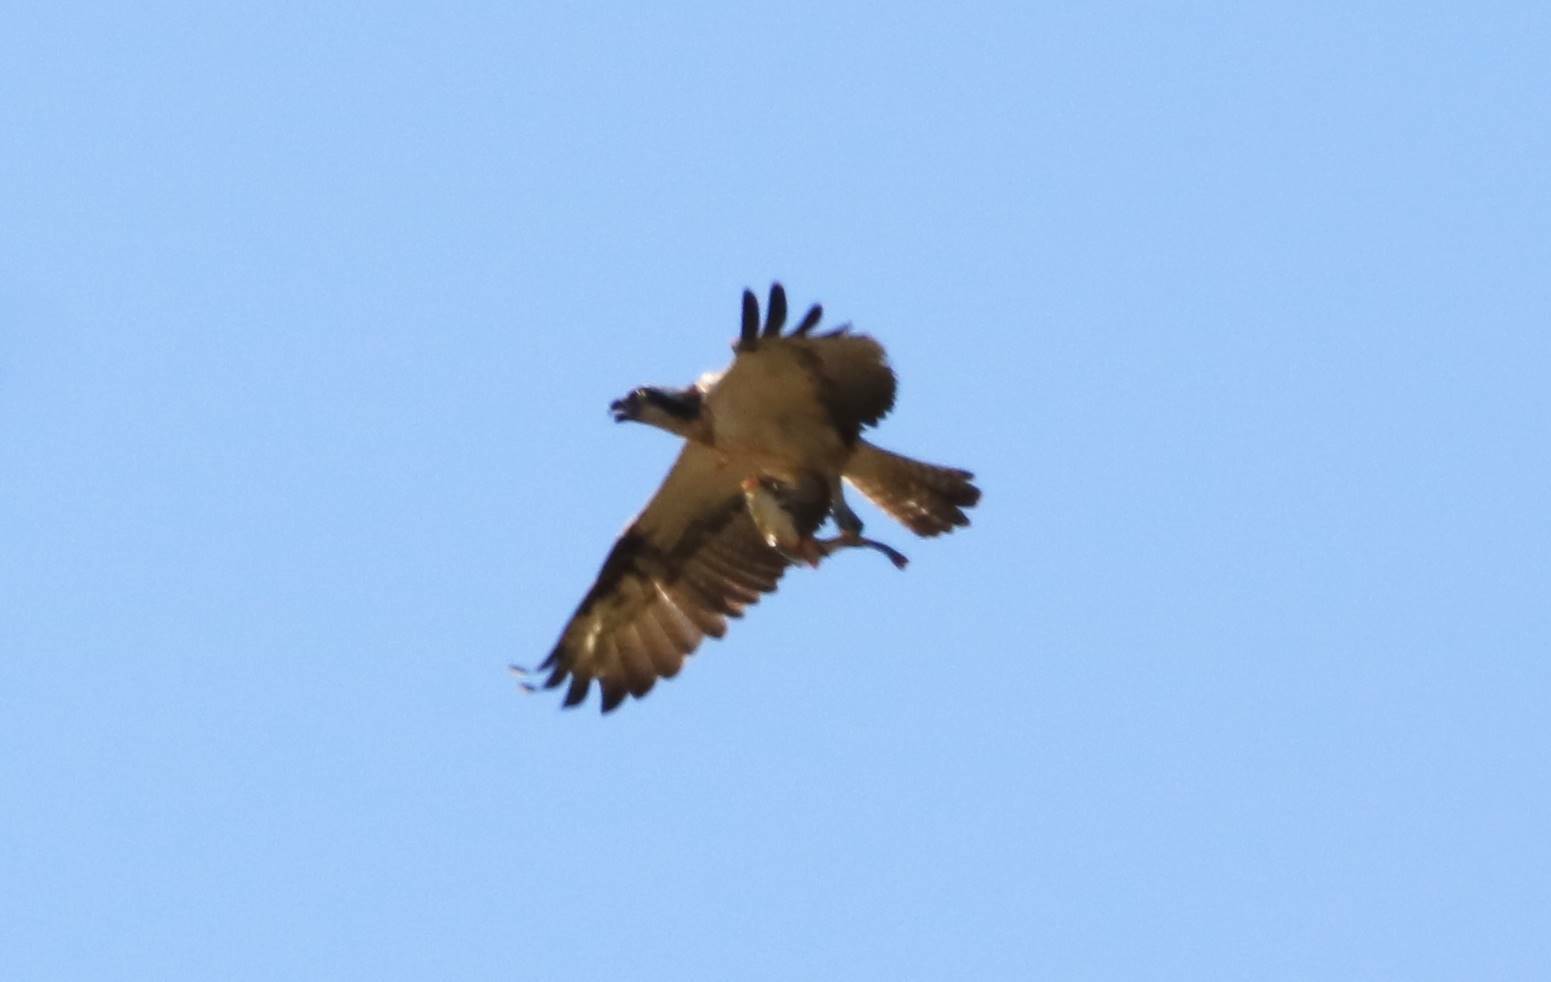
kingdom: Animalia
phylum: Chordata
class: Aves
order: Accipitriformes
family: Pandionidae
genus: Pandion
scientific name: Pandion haliaetus
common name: Osprey
